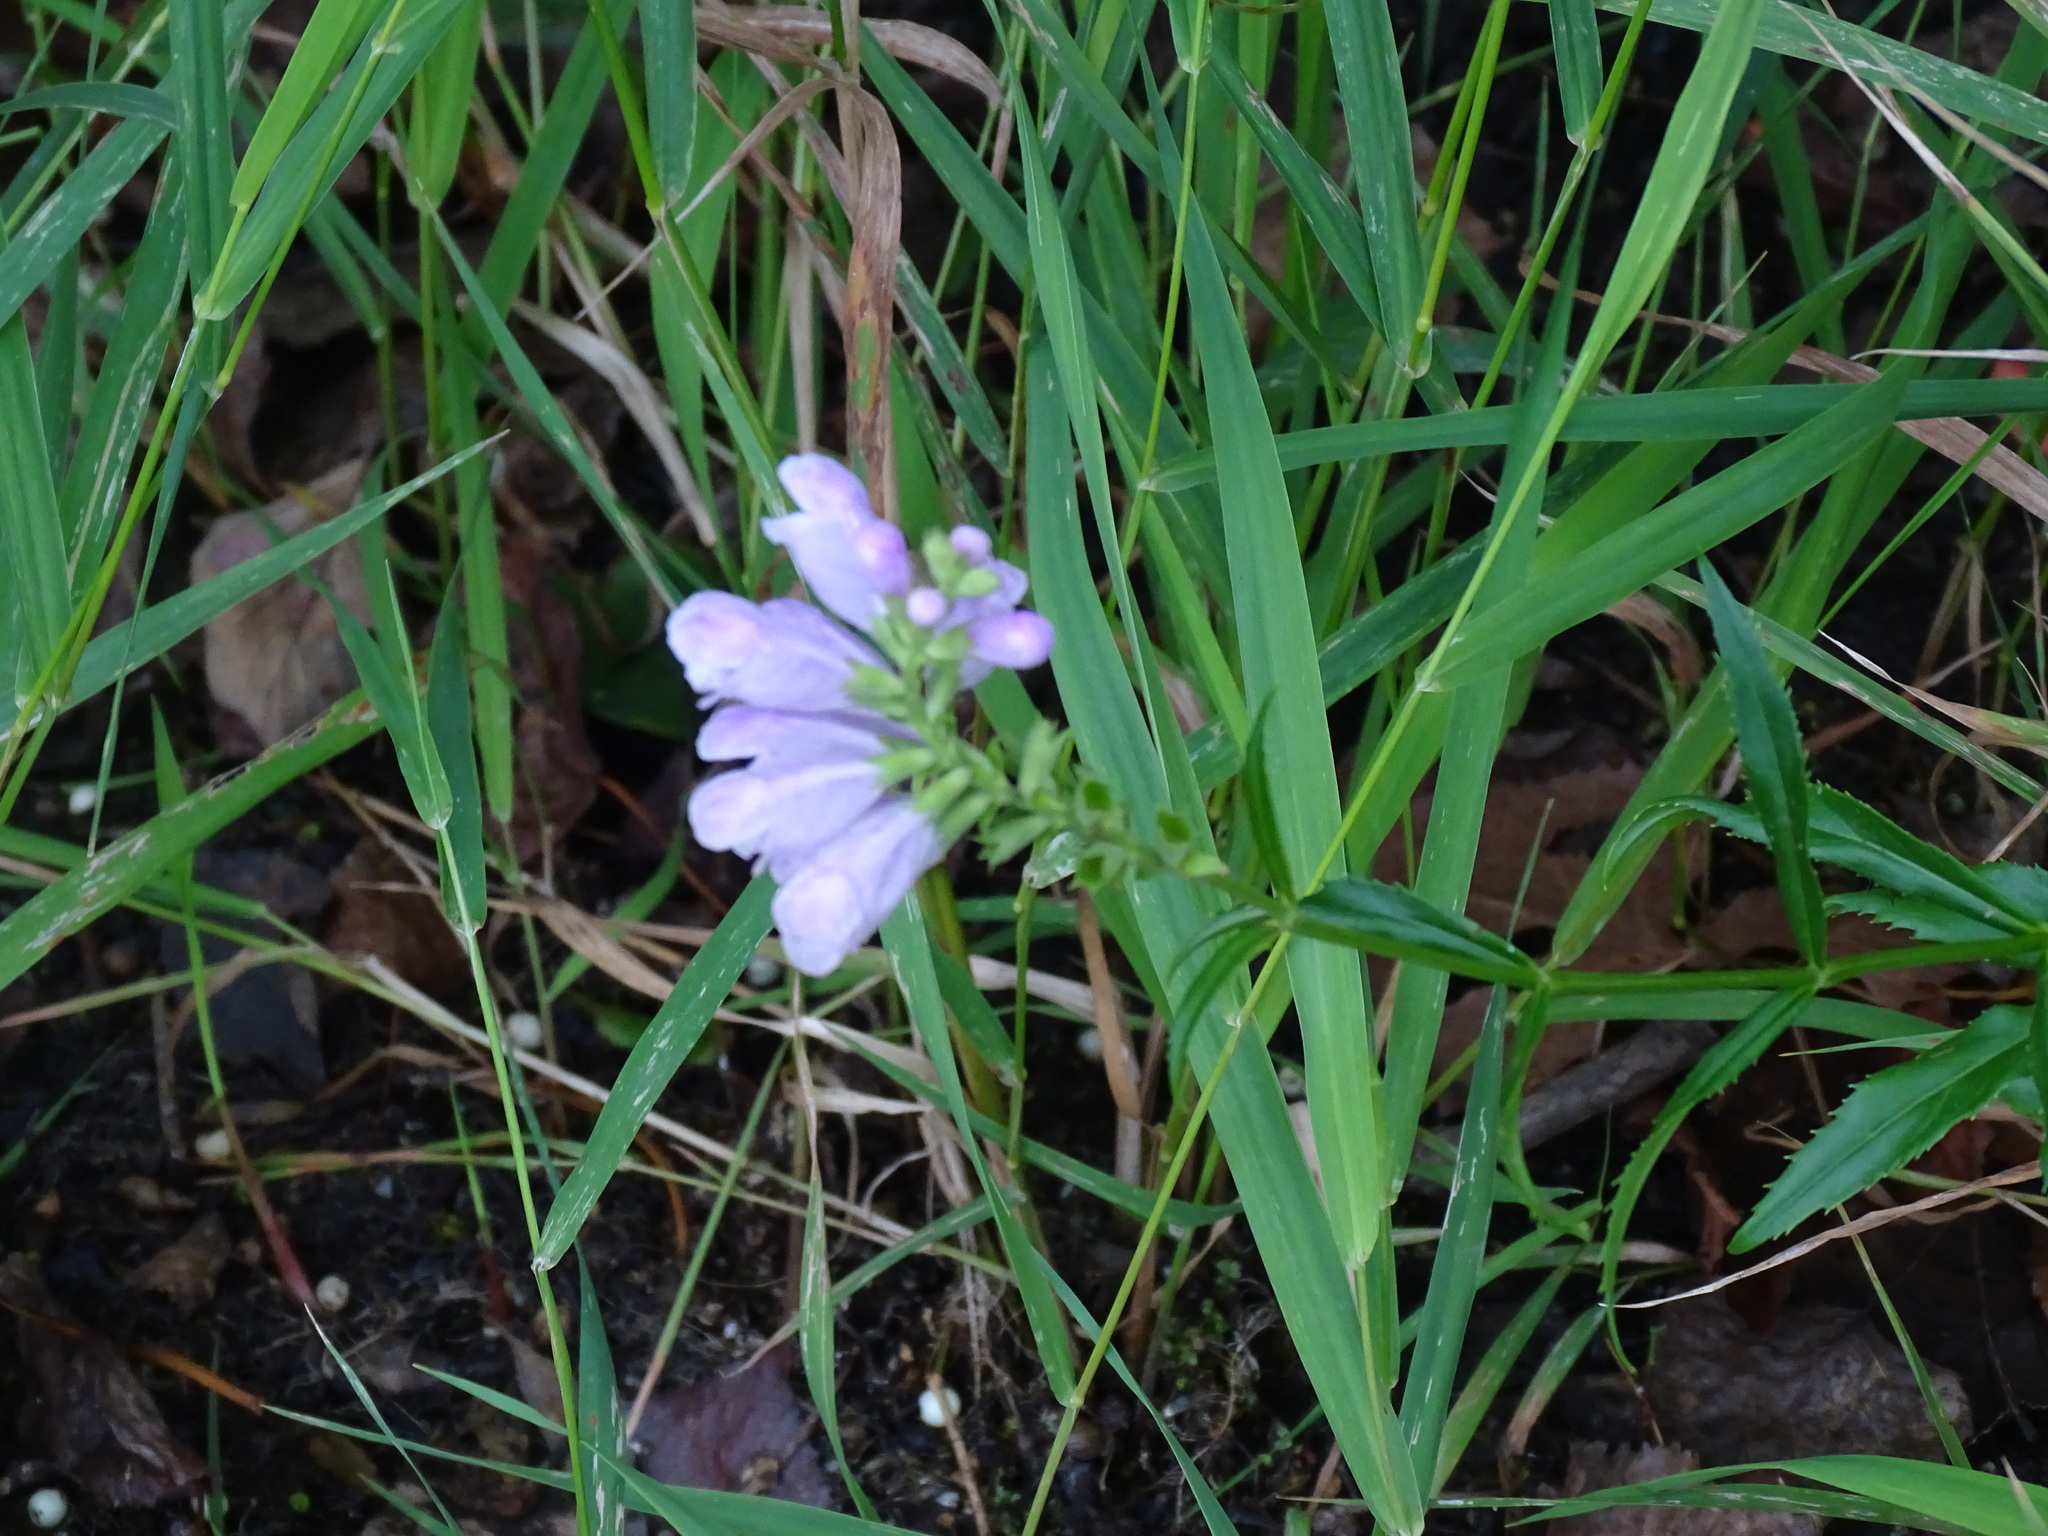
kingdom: Plantae
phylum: Tracheophyta
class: Magnoliopsida
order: Lamiales
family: Lamiaceae
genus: Physostegia
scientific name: Physostegia virginiana
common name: Obedient-plant
